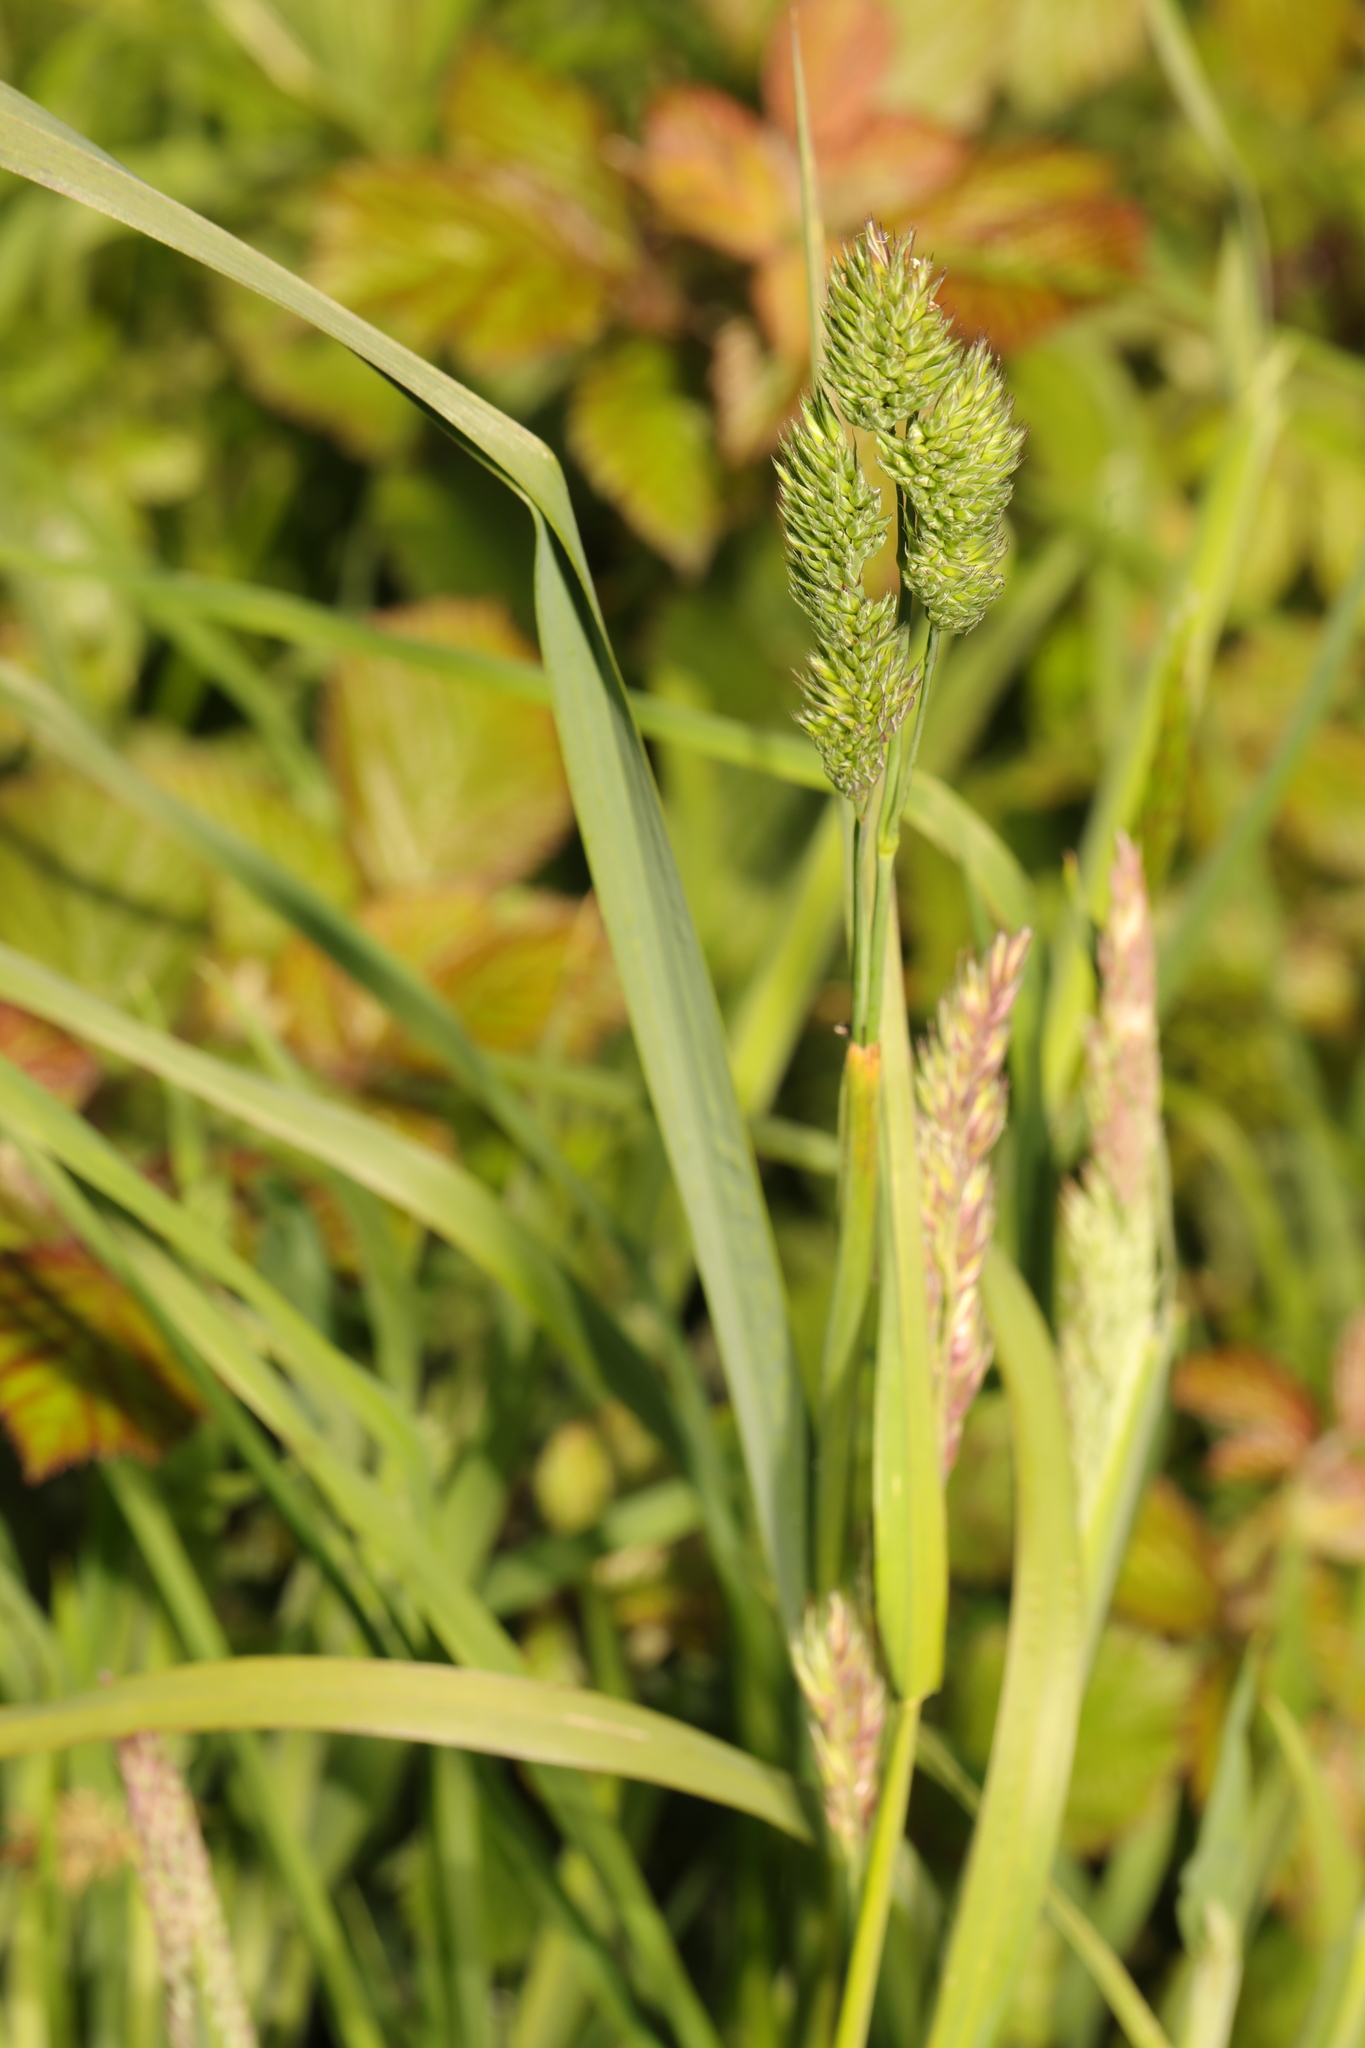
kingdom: Plantae
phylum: Tracheophyta
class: Liliopsida
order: Poales
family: Poaceae
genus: Dactylis
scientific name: Dactylis glomerata
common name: Orchardgrass
